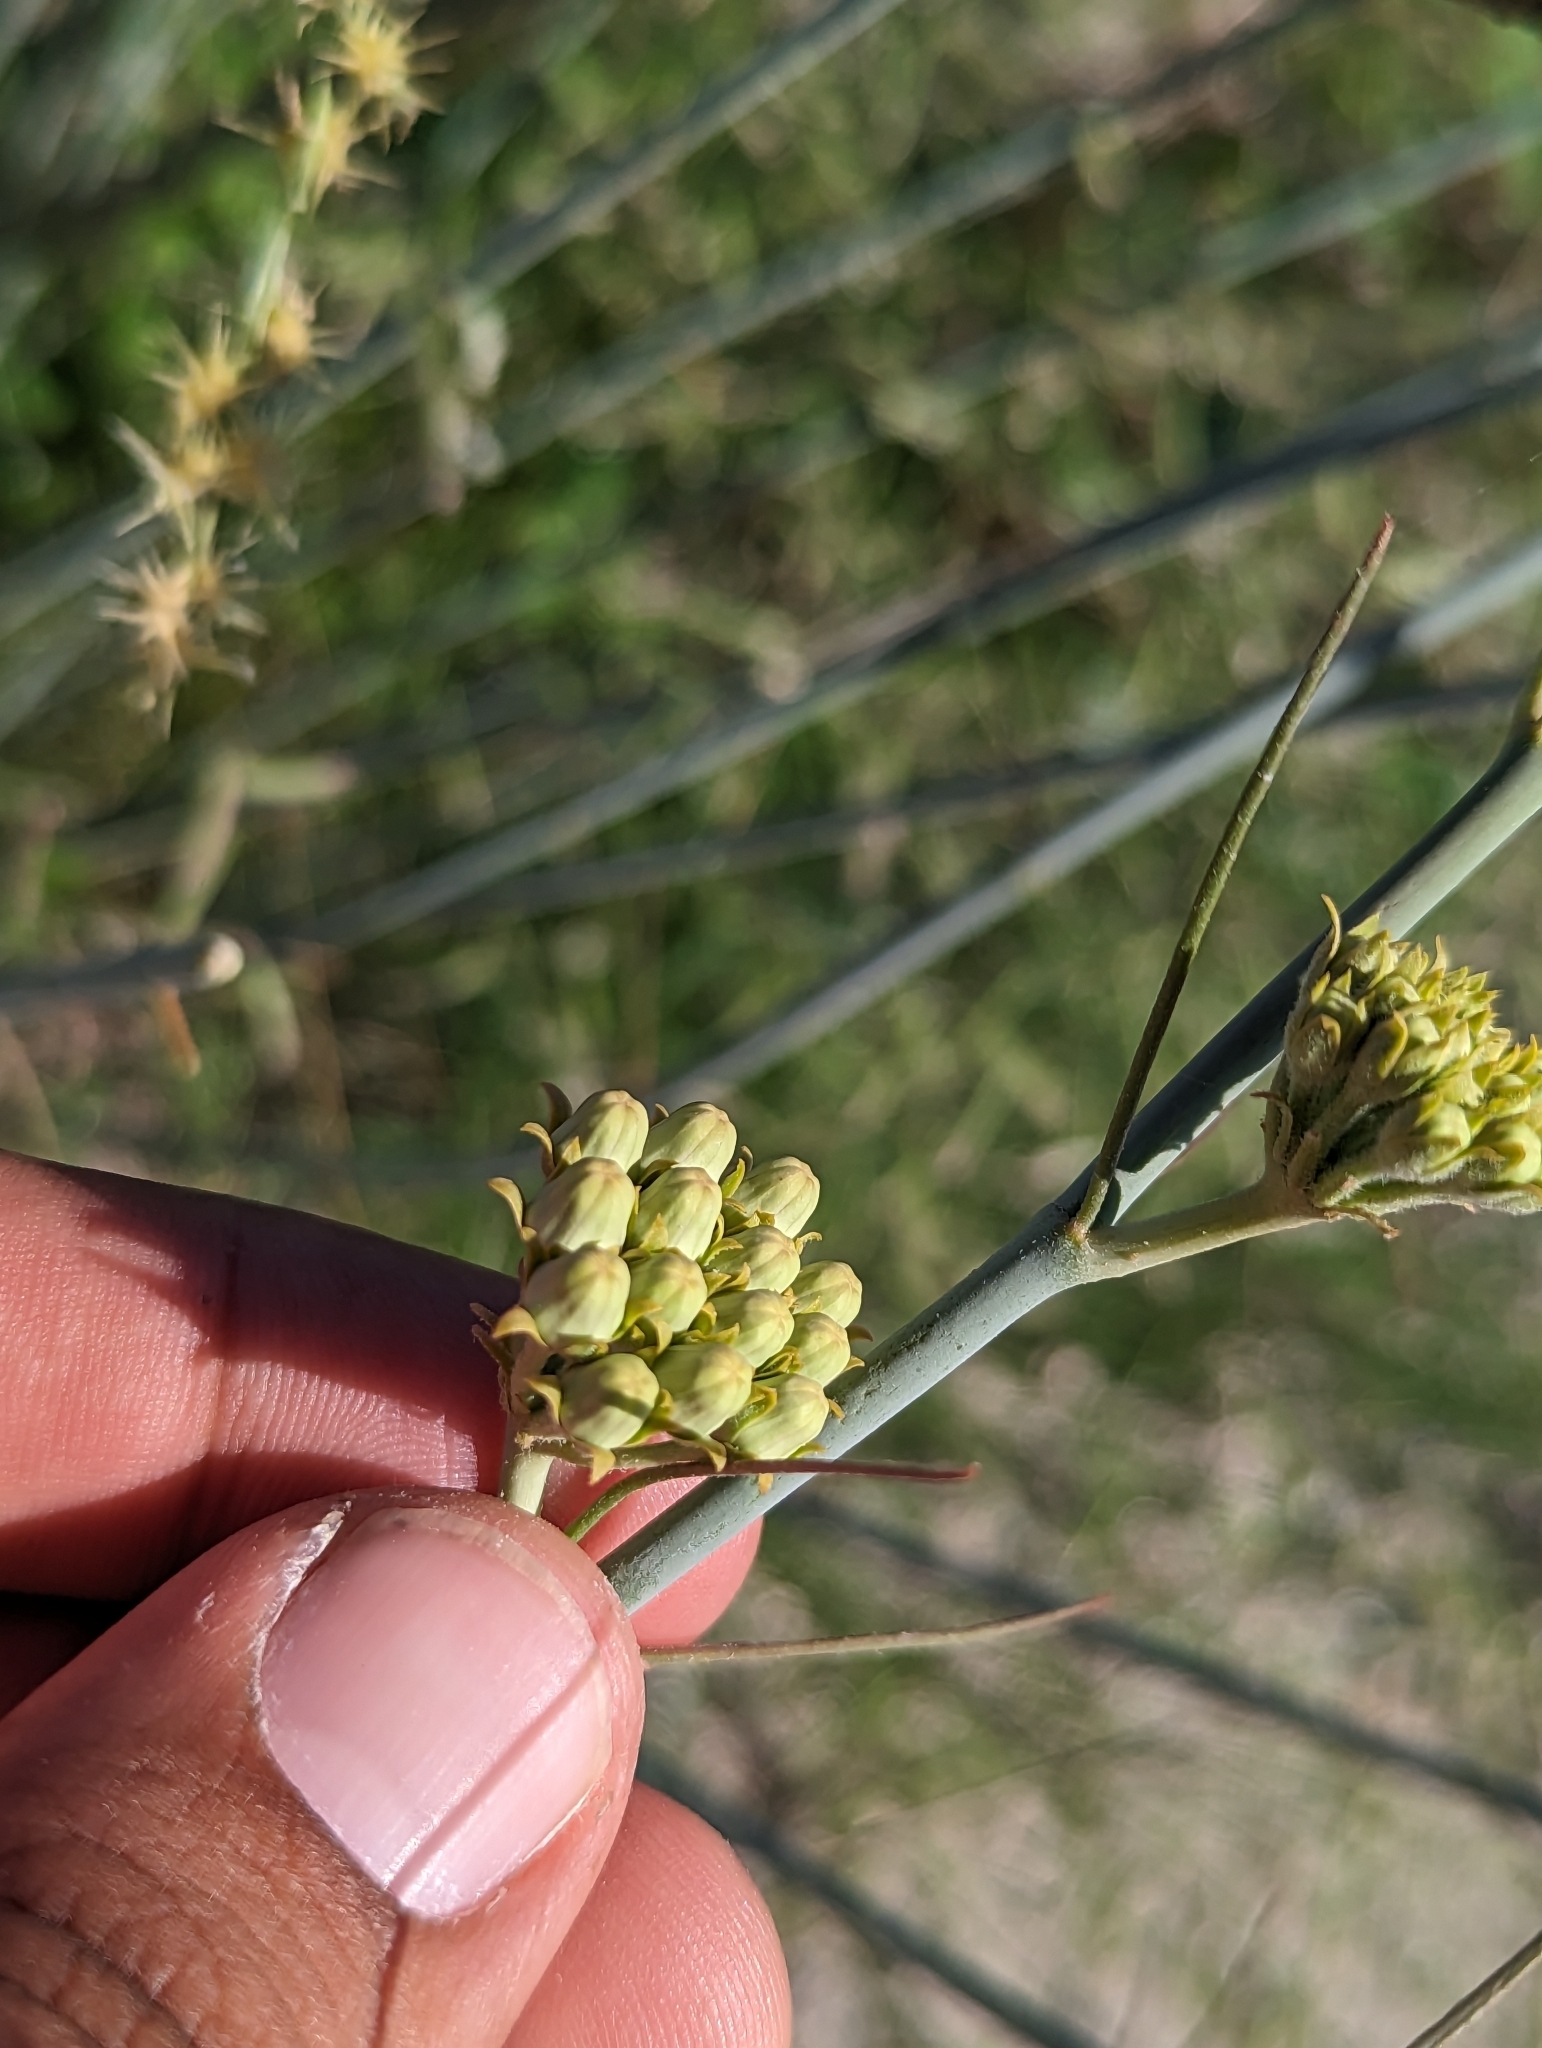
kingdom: Plantae
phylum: Tracheophyta
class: Magnoliopsida
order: Gentianales
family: Apocynaceae
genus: Asclepias
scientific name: Asclepias subulata
